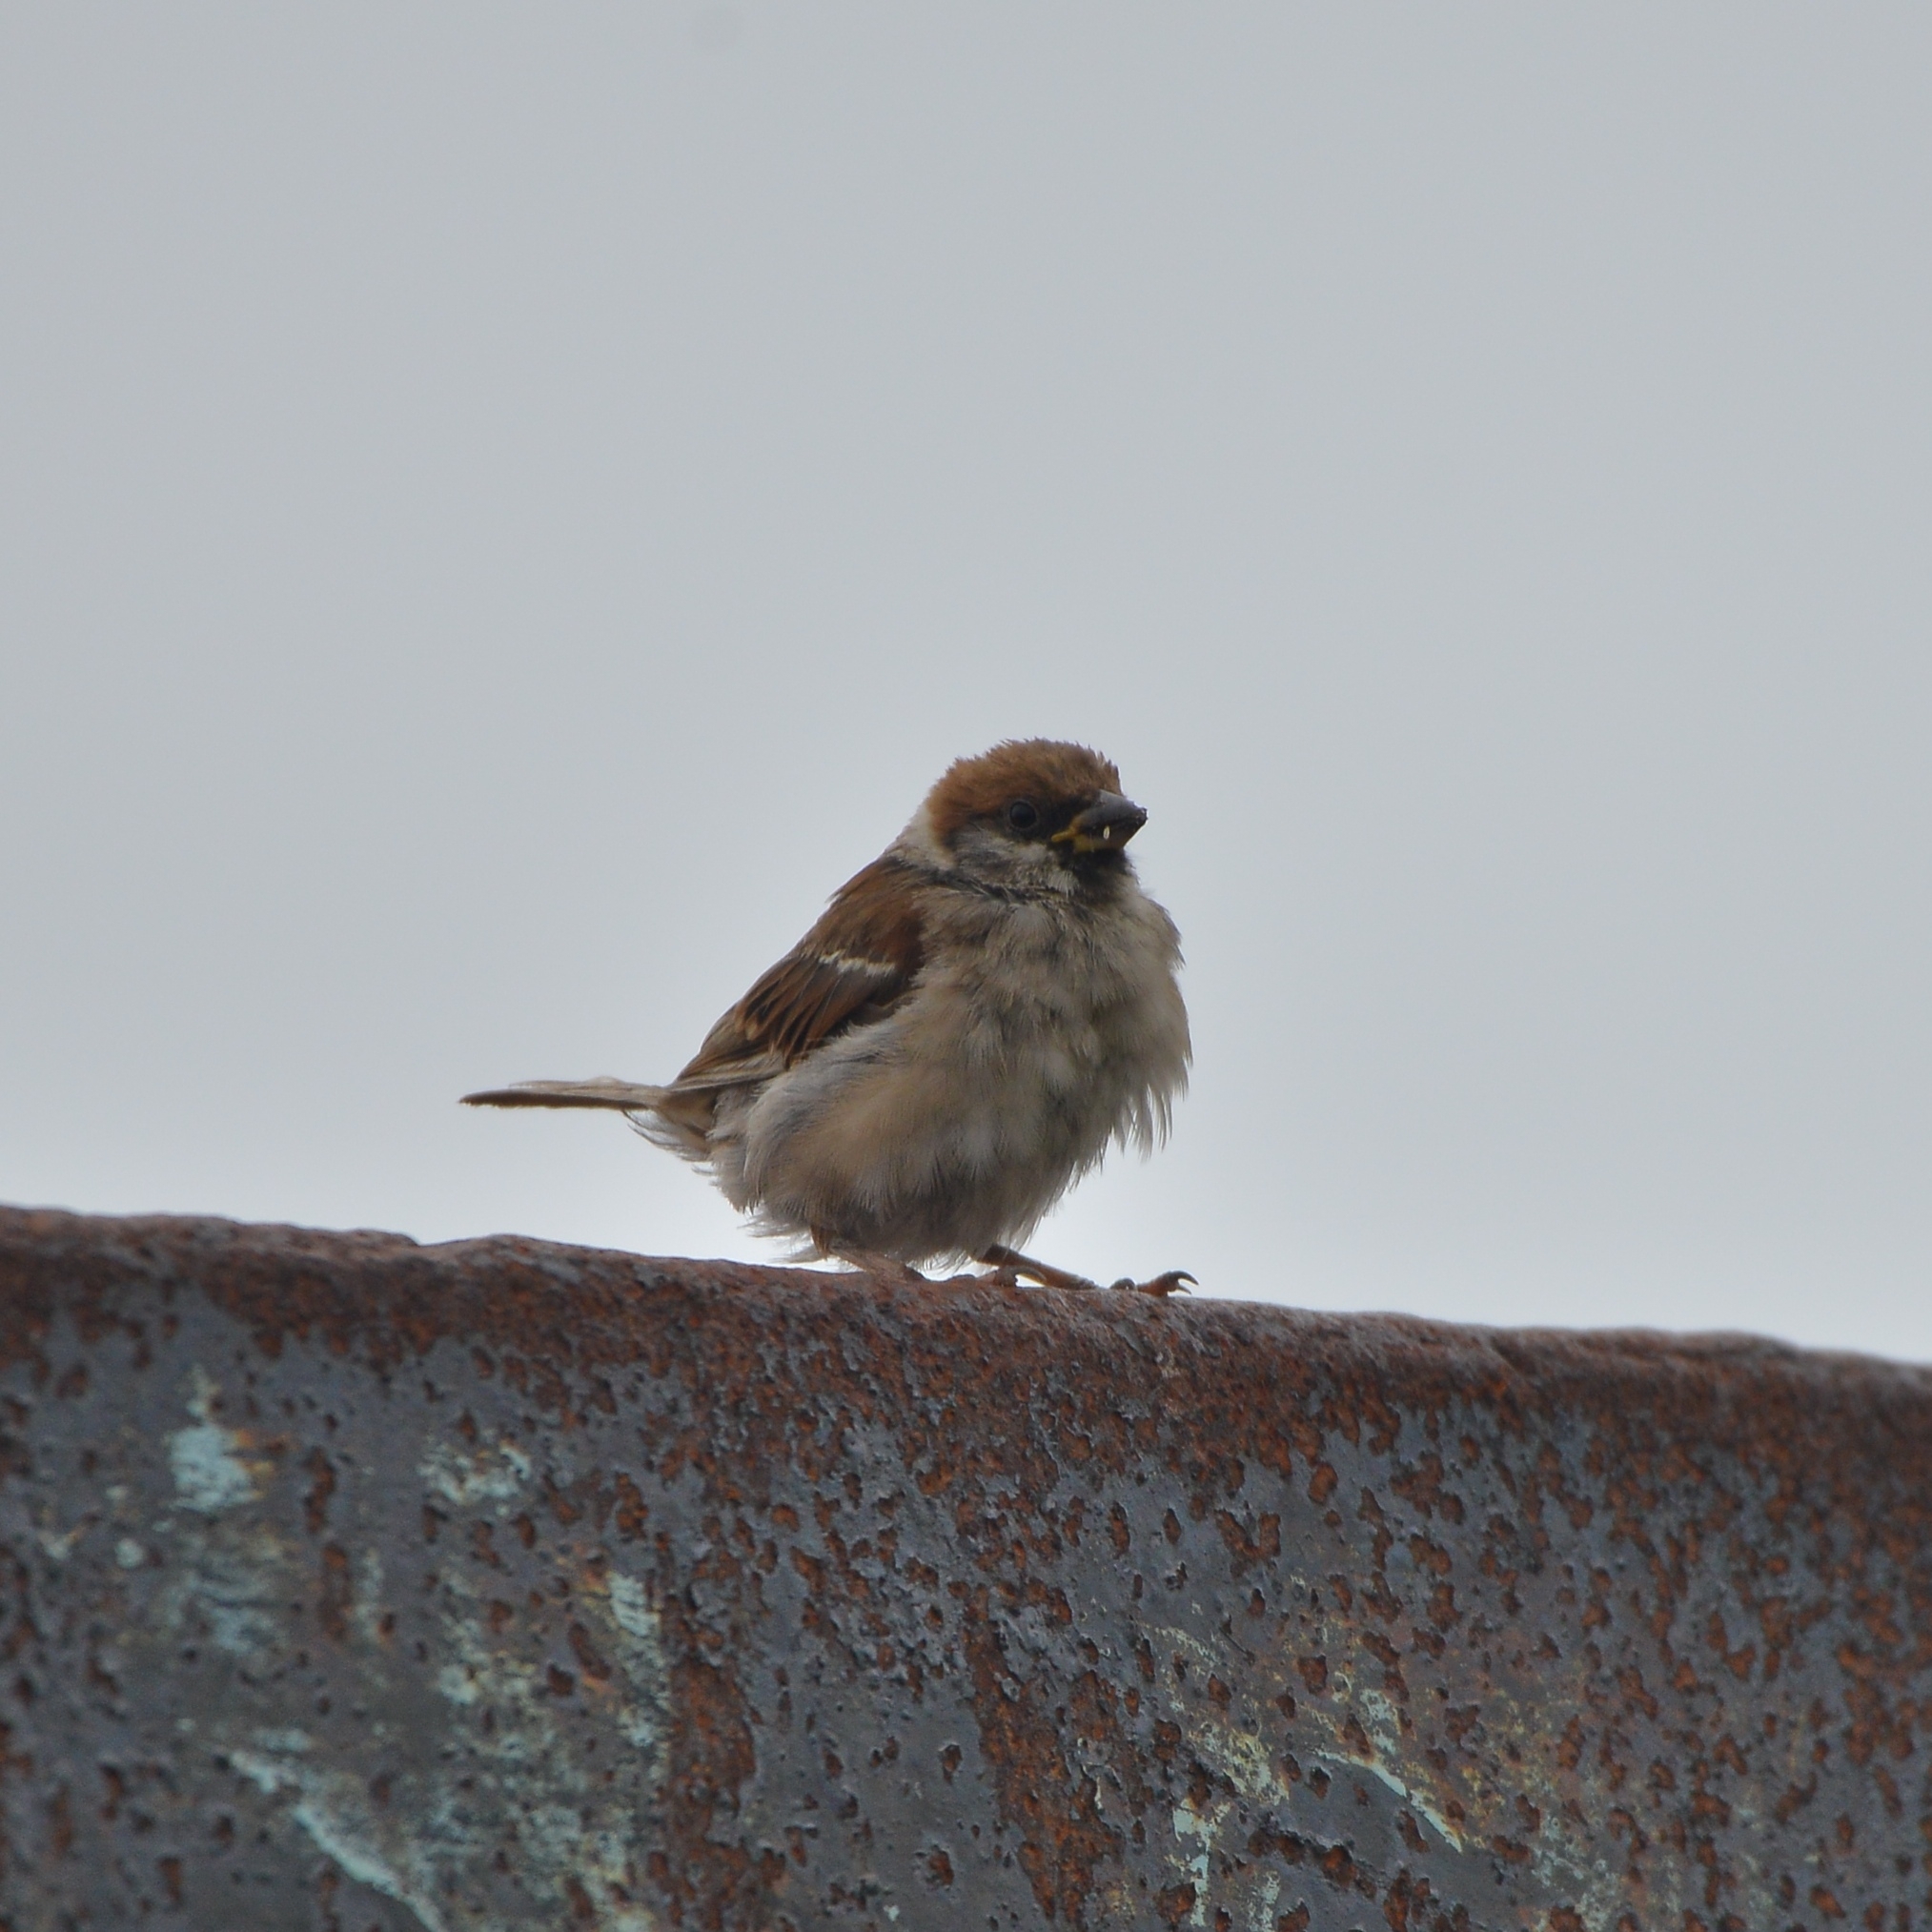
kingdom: Animalia
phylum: Chordata
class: Aves
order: Passeriformes
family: Passeridae
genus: Passer
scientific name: Passer montanus
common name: Eurasian tree sparrow
